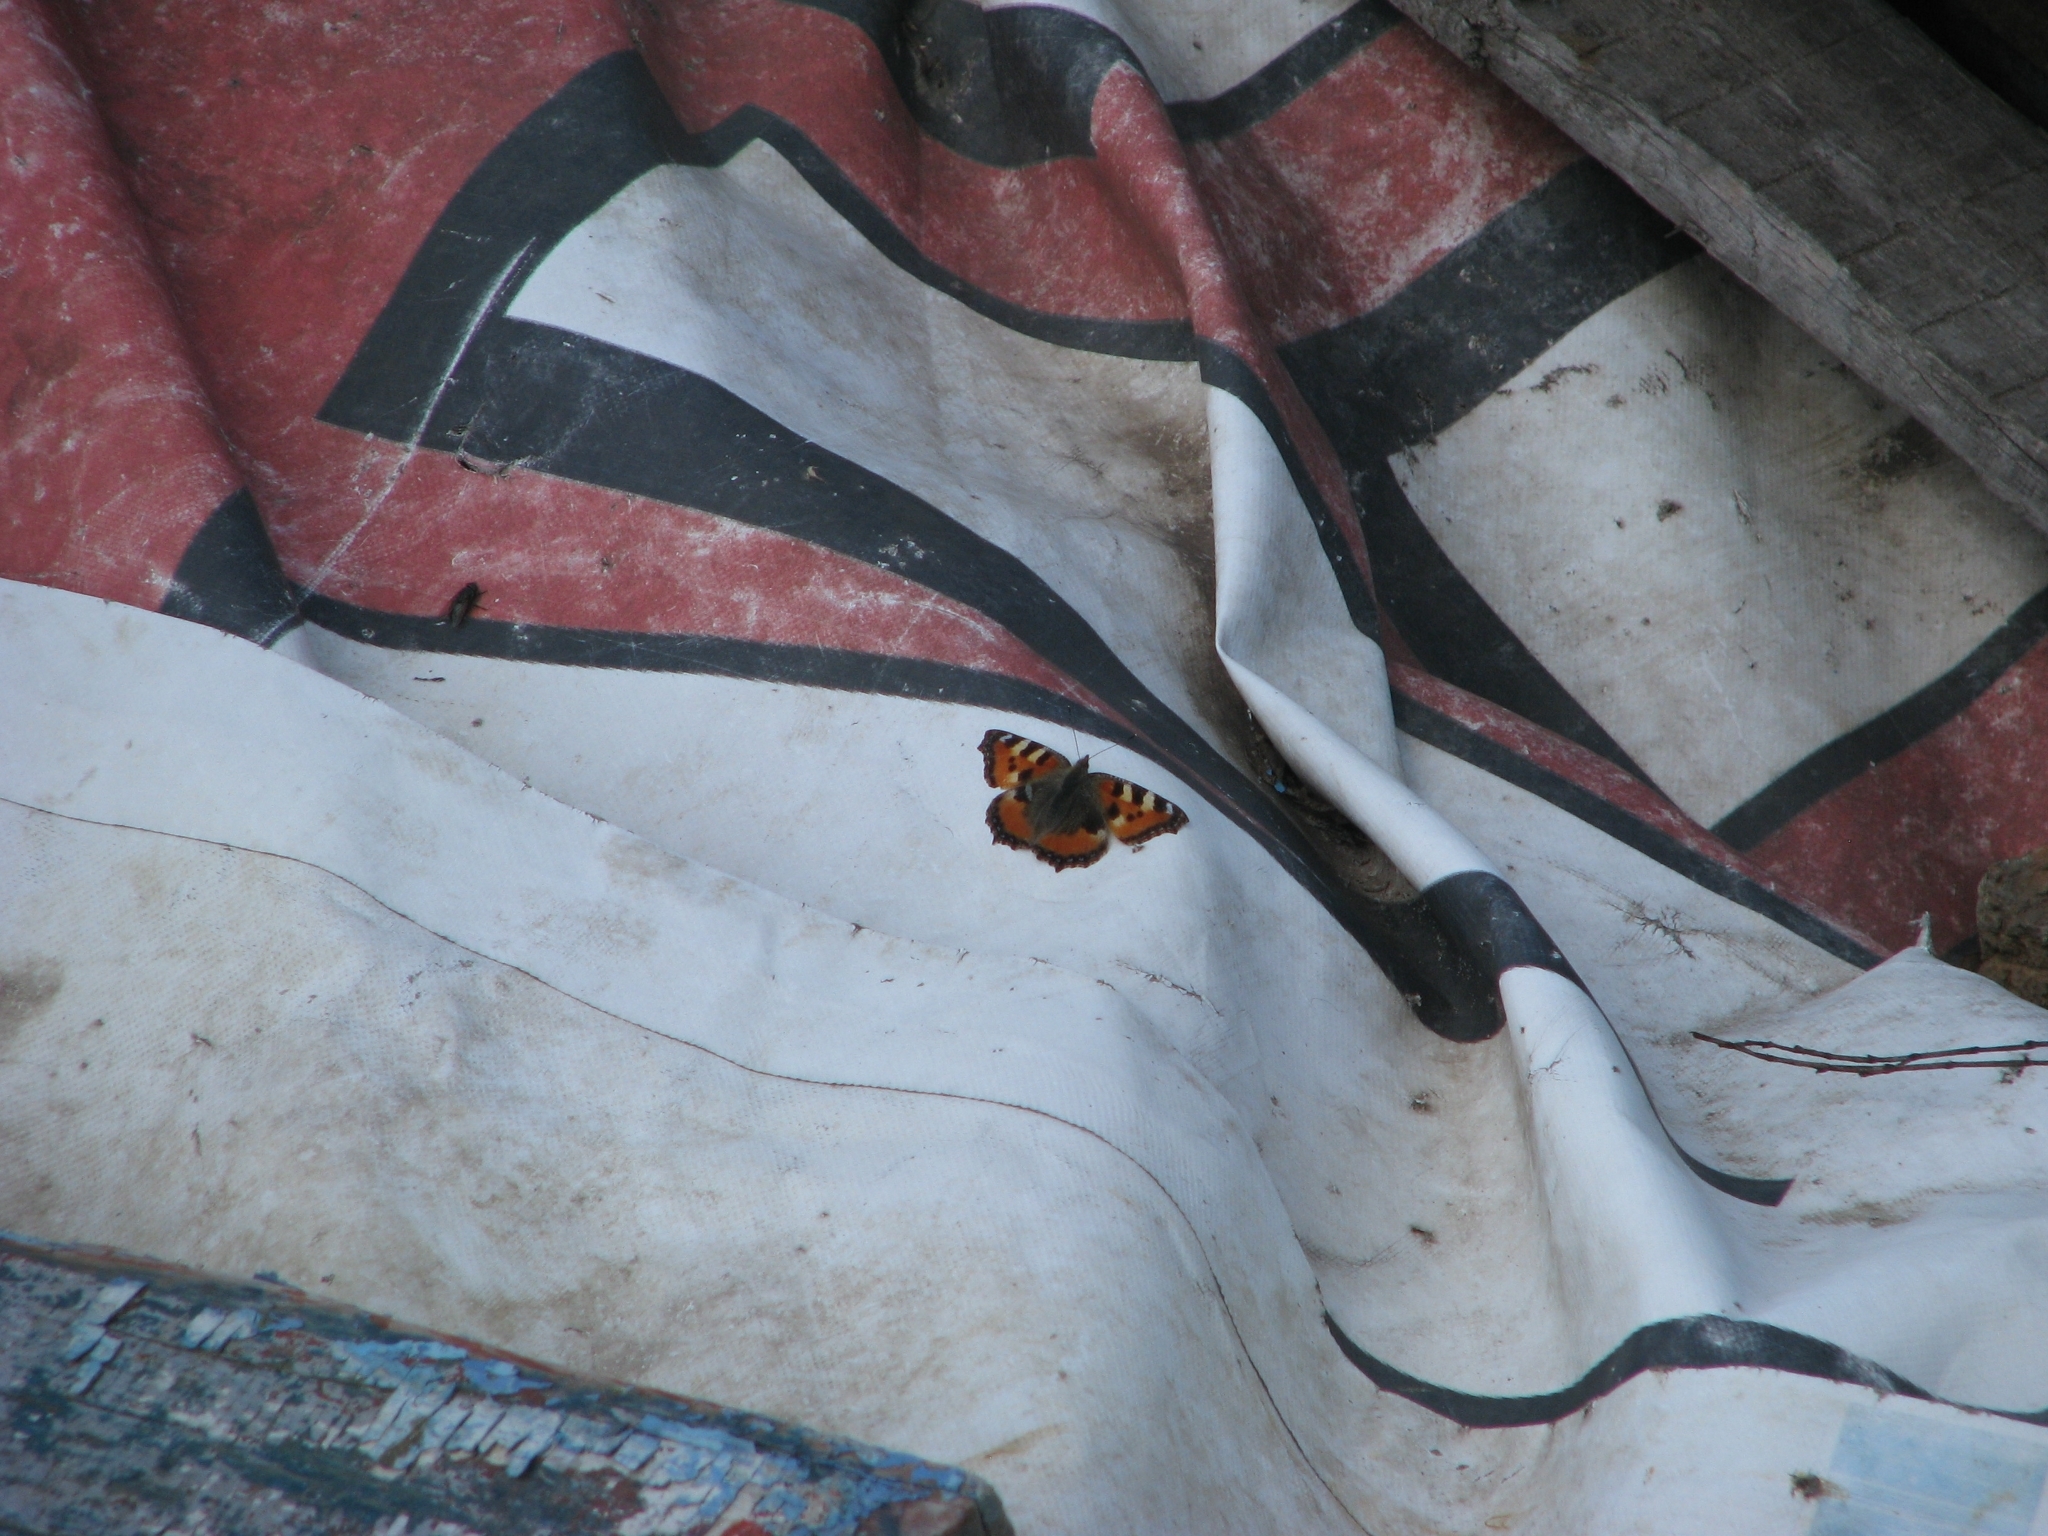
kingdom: Animalia
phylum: Arthropoda
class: Insecta
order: Lepidoptera
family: Nymphalidae
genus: Aglais
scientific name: Aglais urticae
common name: Small tortoiseshell
